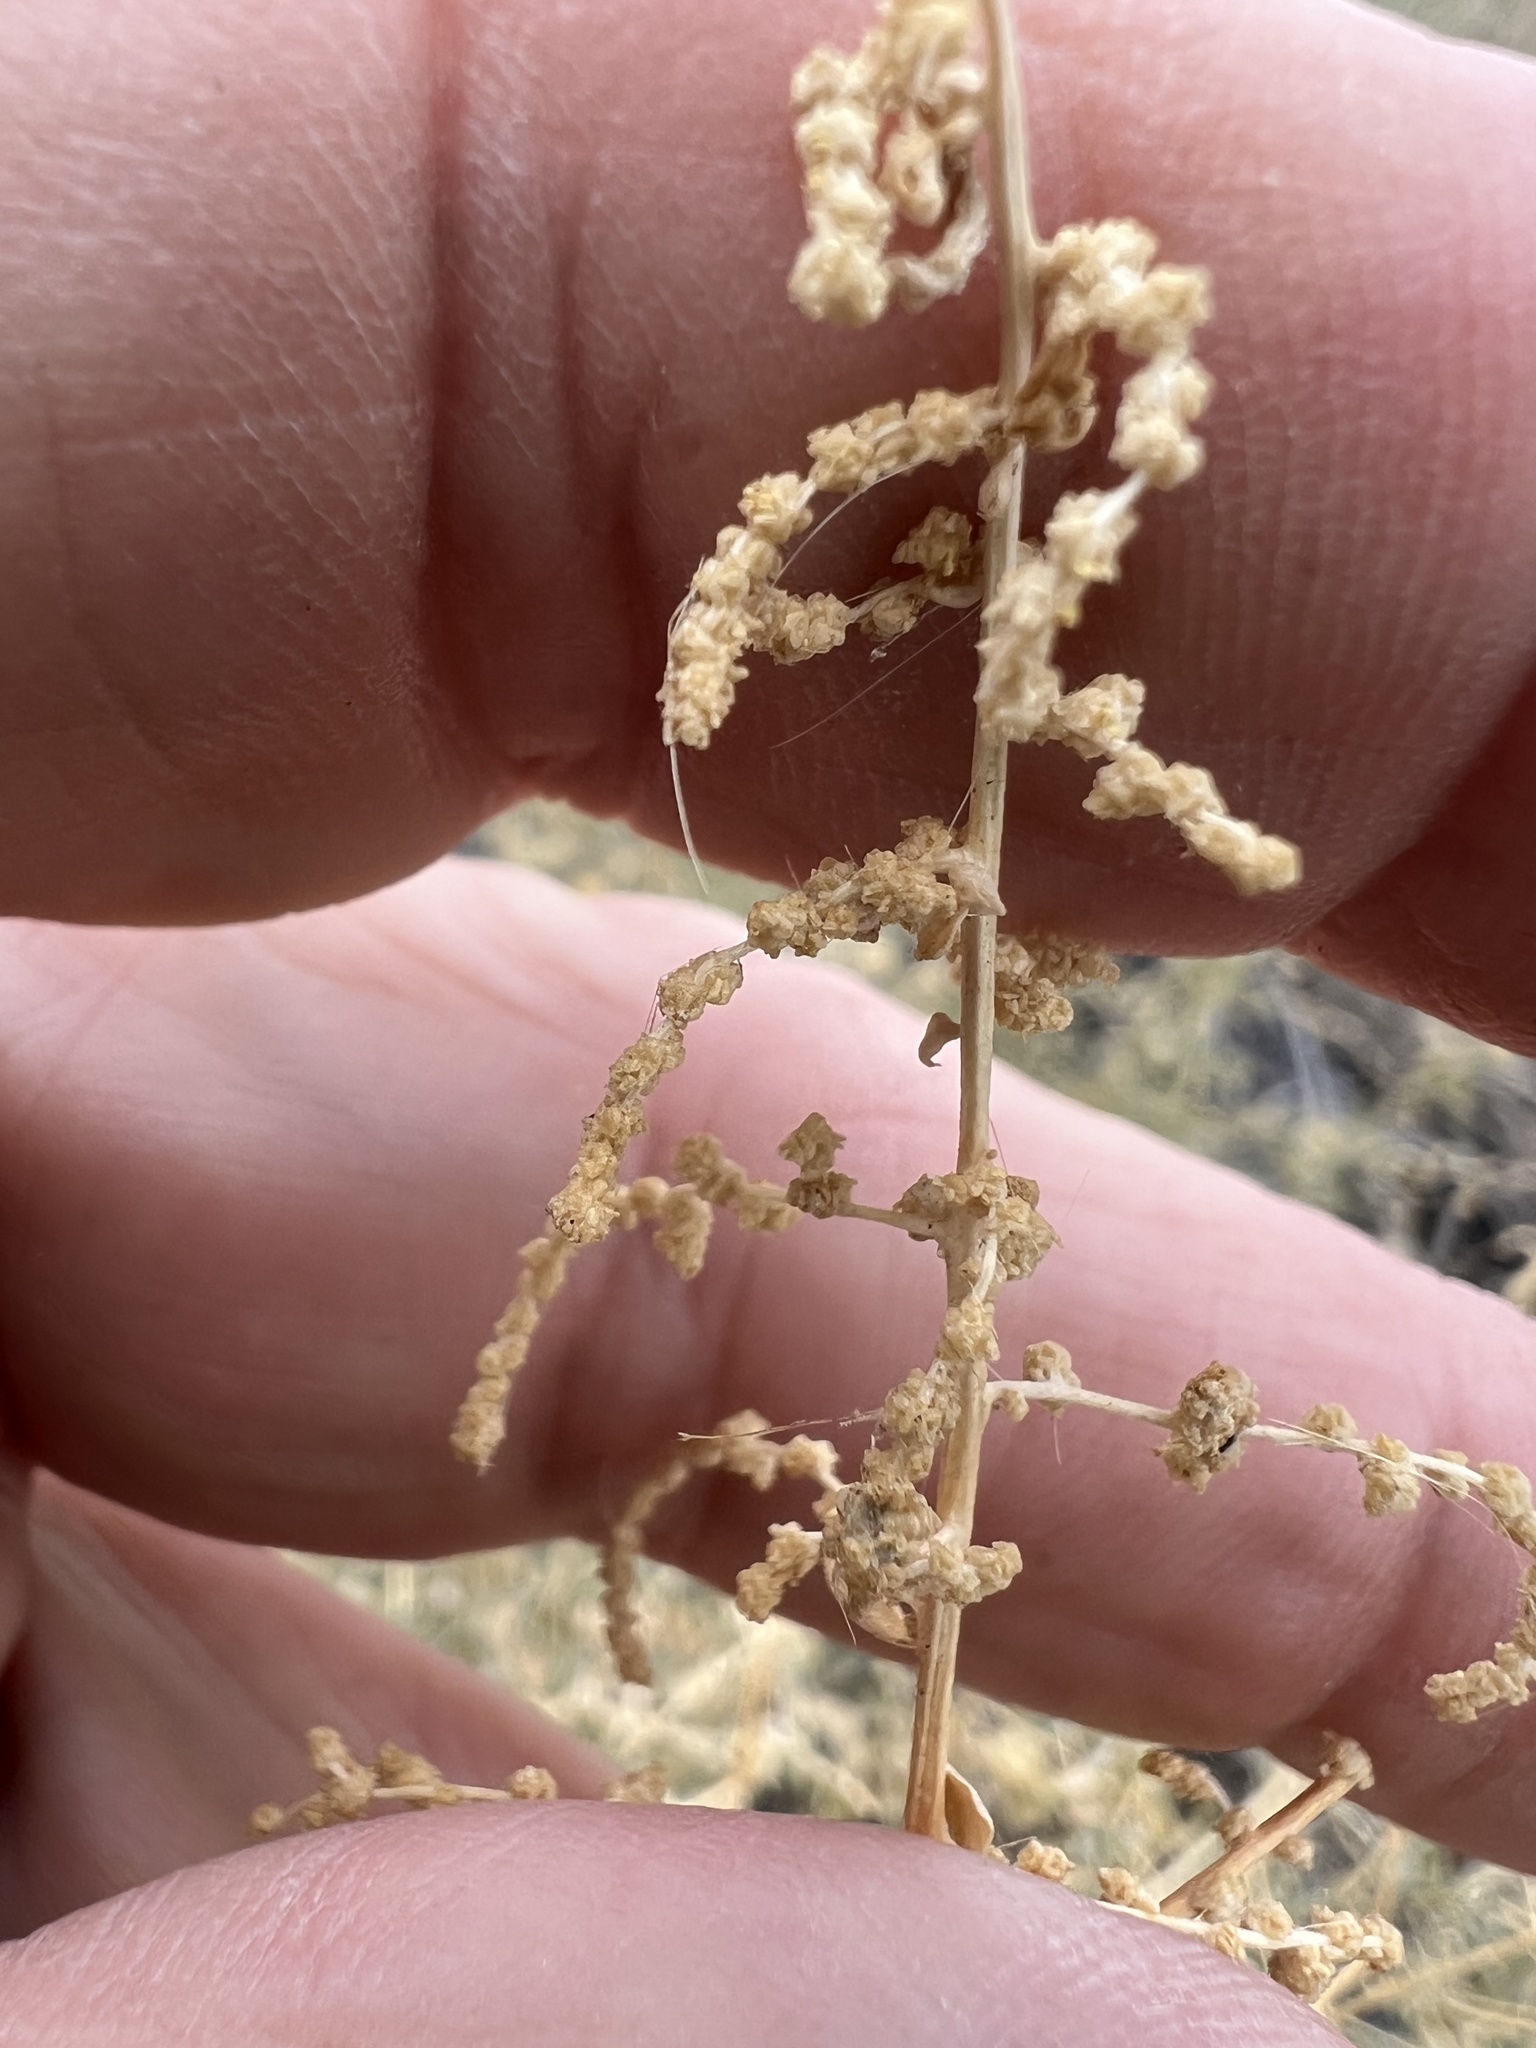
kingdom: Plantae
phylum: Tracheophyta
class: Magnoliopsida
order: Caryophyllales
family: Amaranthaceae
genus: Atriplex
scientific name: Atriplex torreyi
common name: Torrey's saltbush
